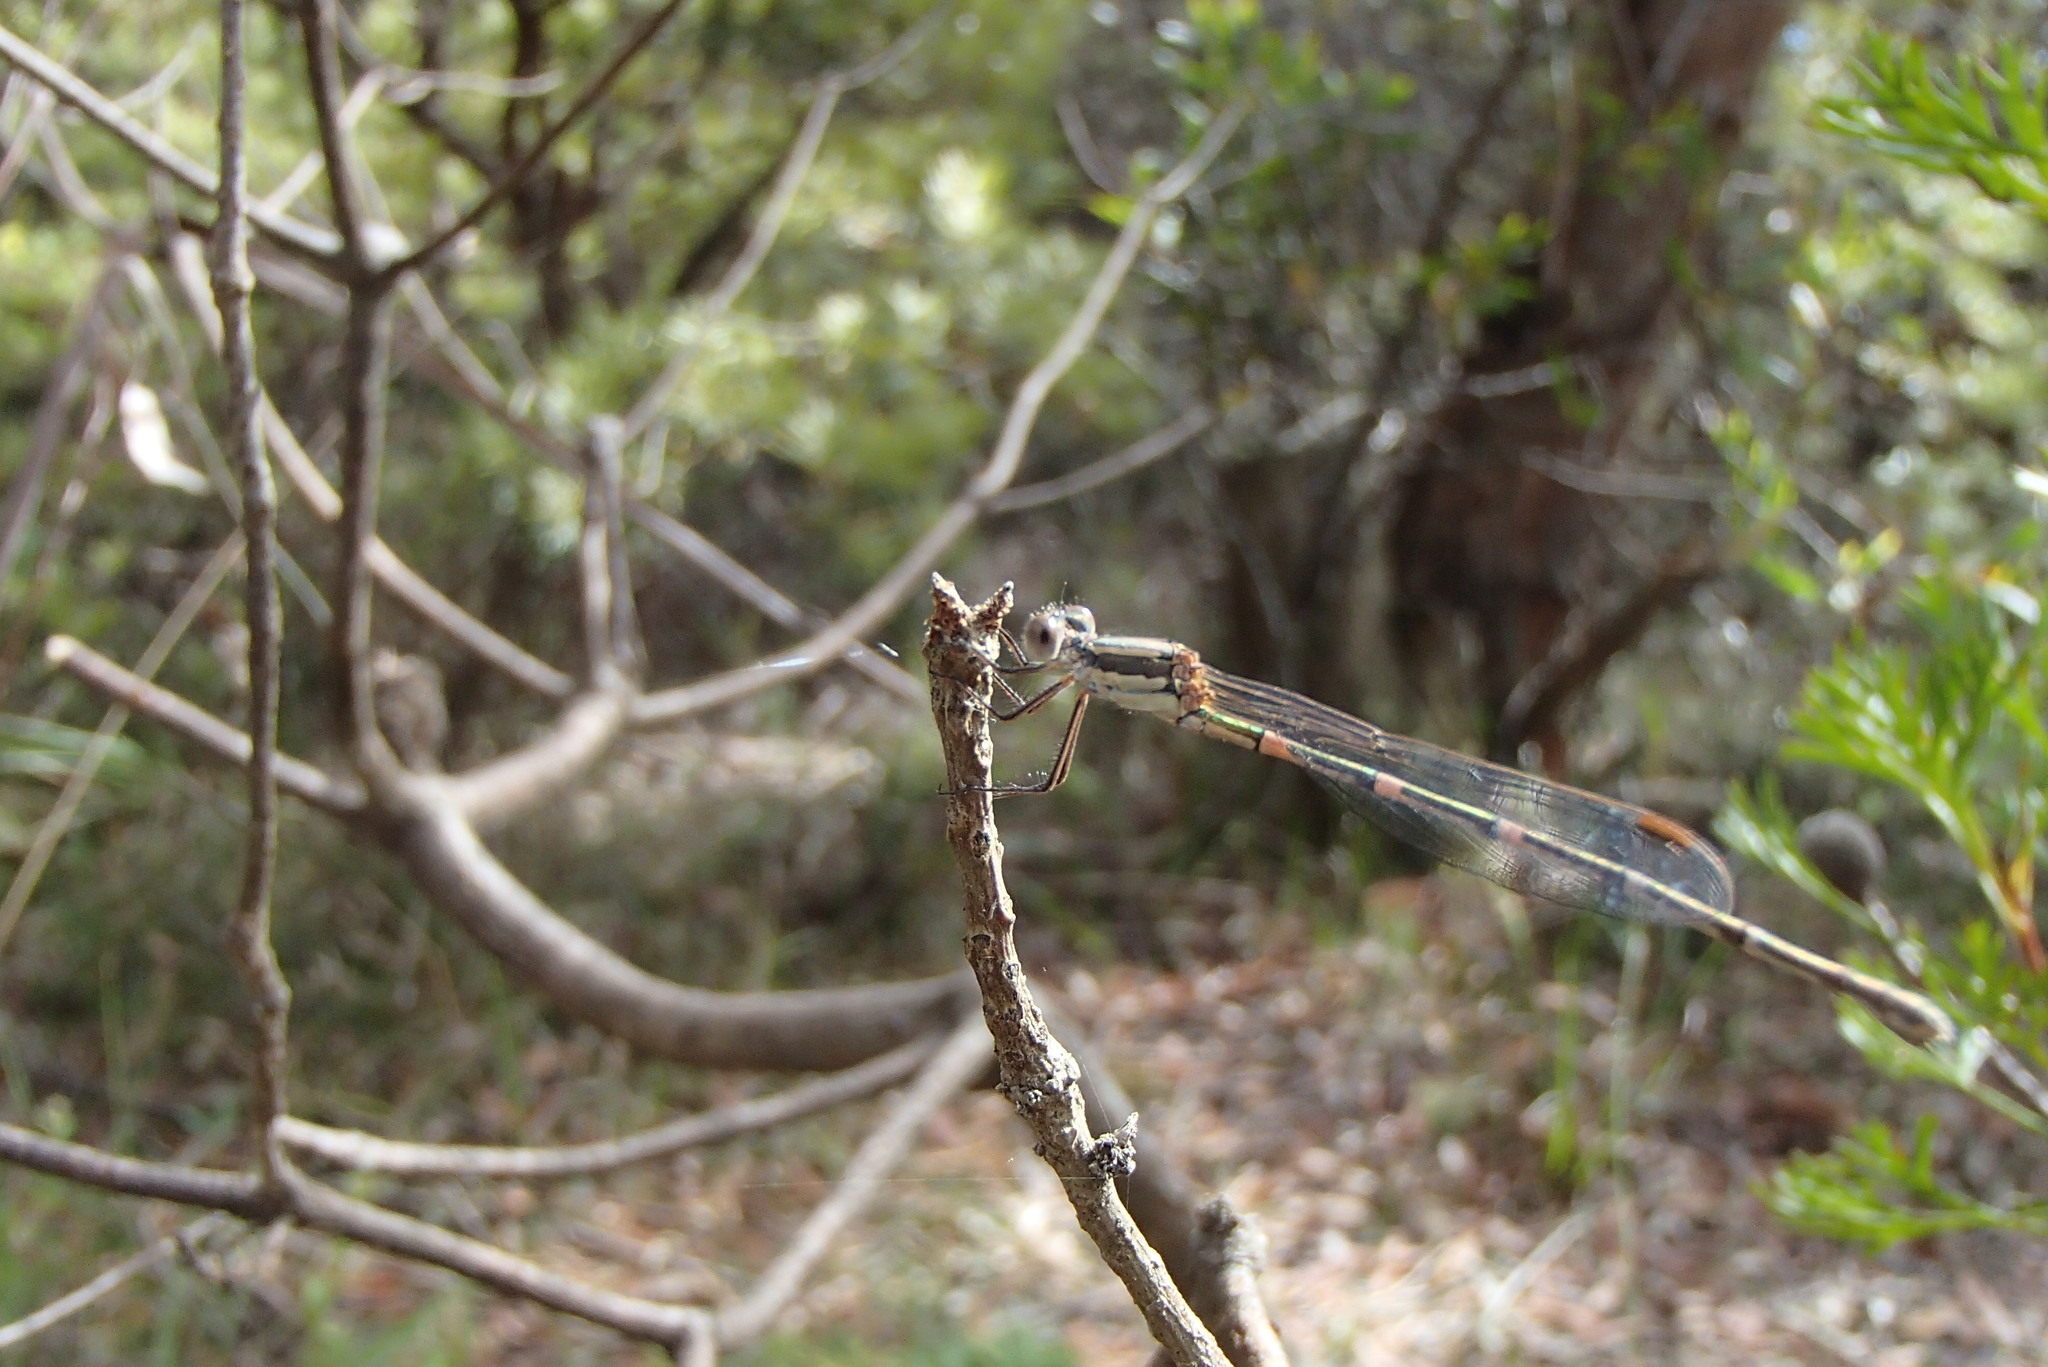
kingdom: Animalia
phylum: Arthropoda
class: Insecta
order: Odonata
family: Lestidae
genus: Austrolestes
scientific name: Austrolestes leda
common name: Wandering ringtail
